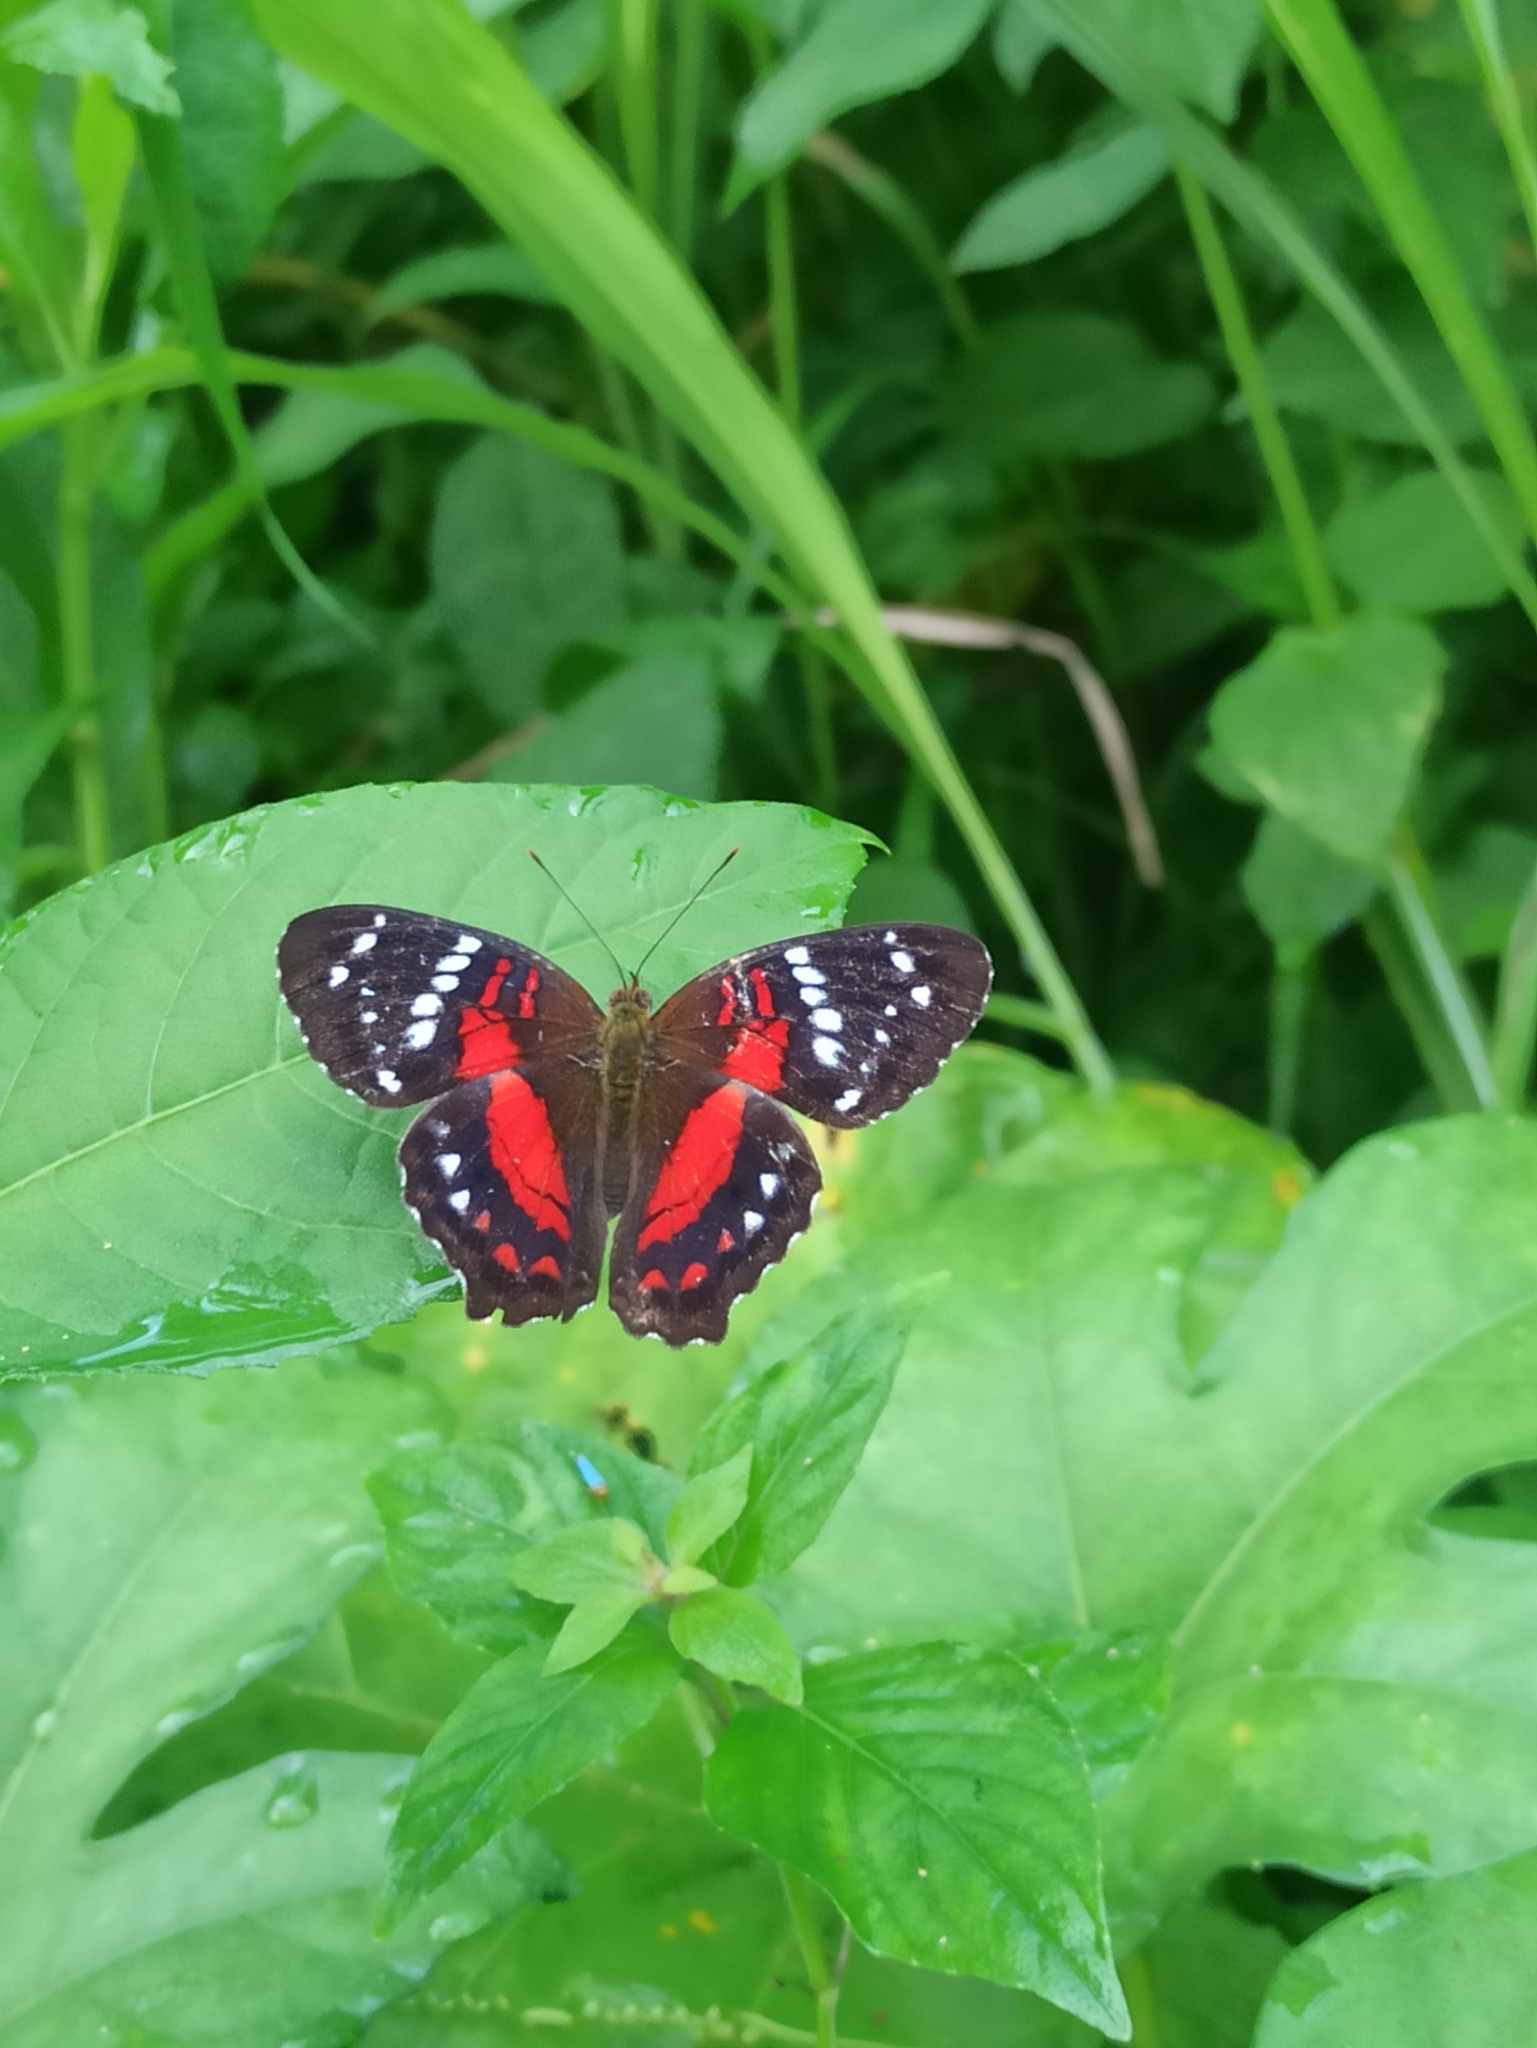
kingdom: Animalia
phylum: Arthropoda
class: Insecta
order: Lepidoptera
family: Nymphalidae
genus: Anartia
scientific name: Anartia amathea
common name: Red peacock
